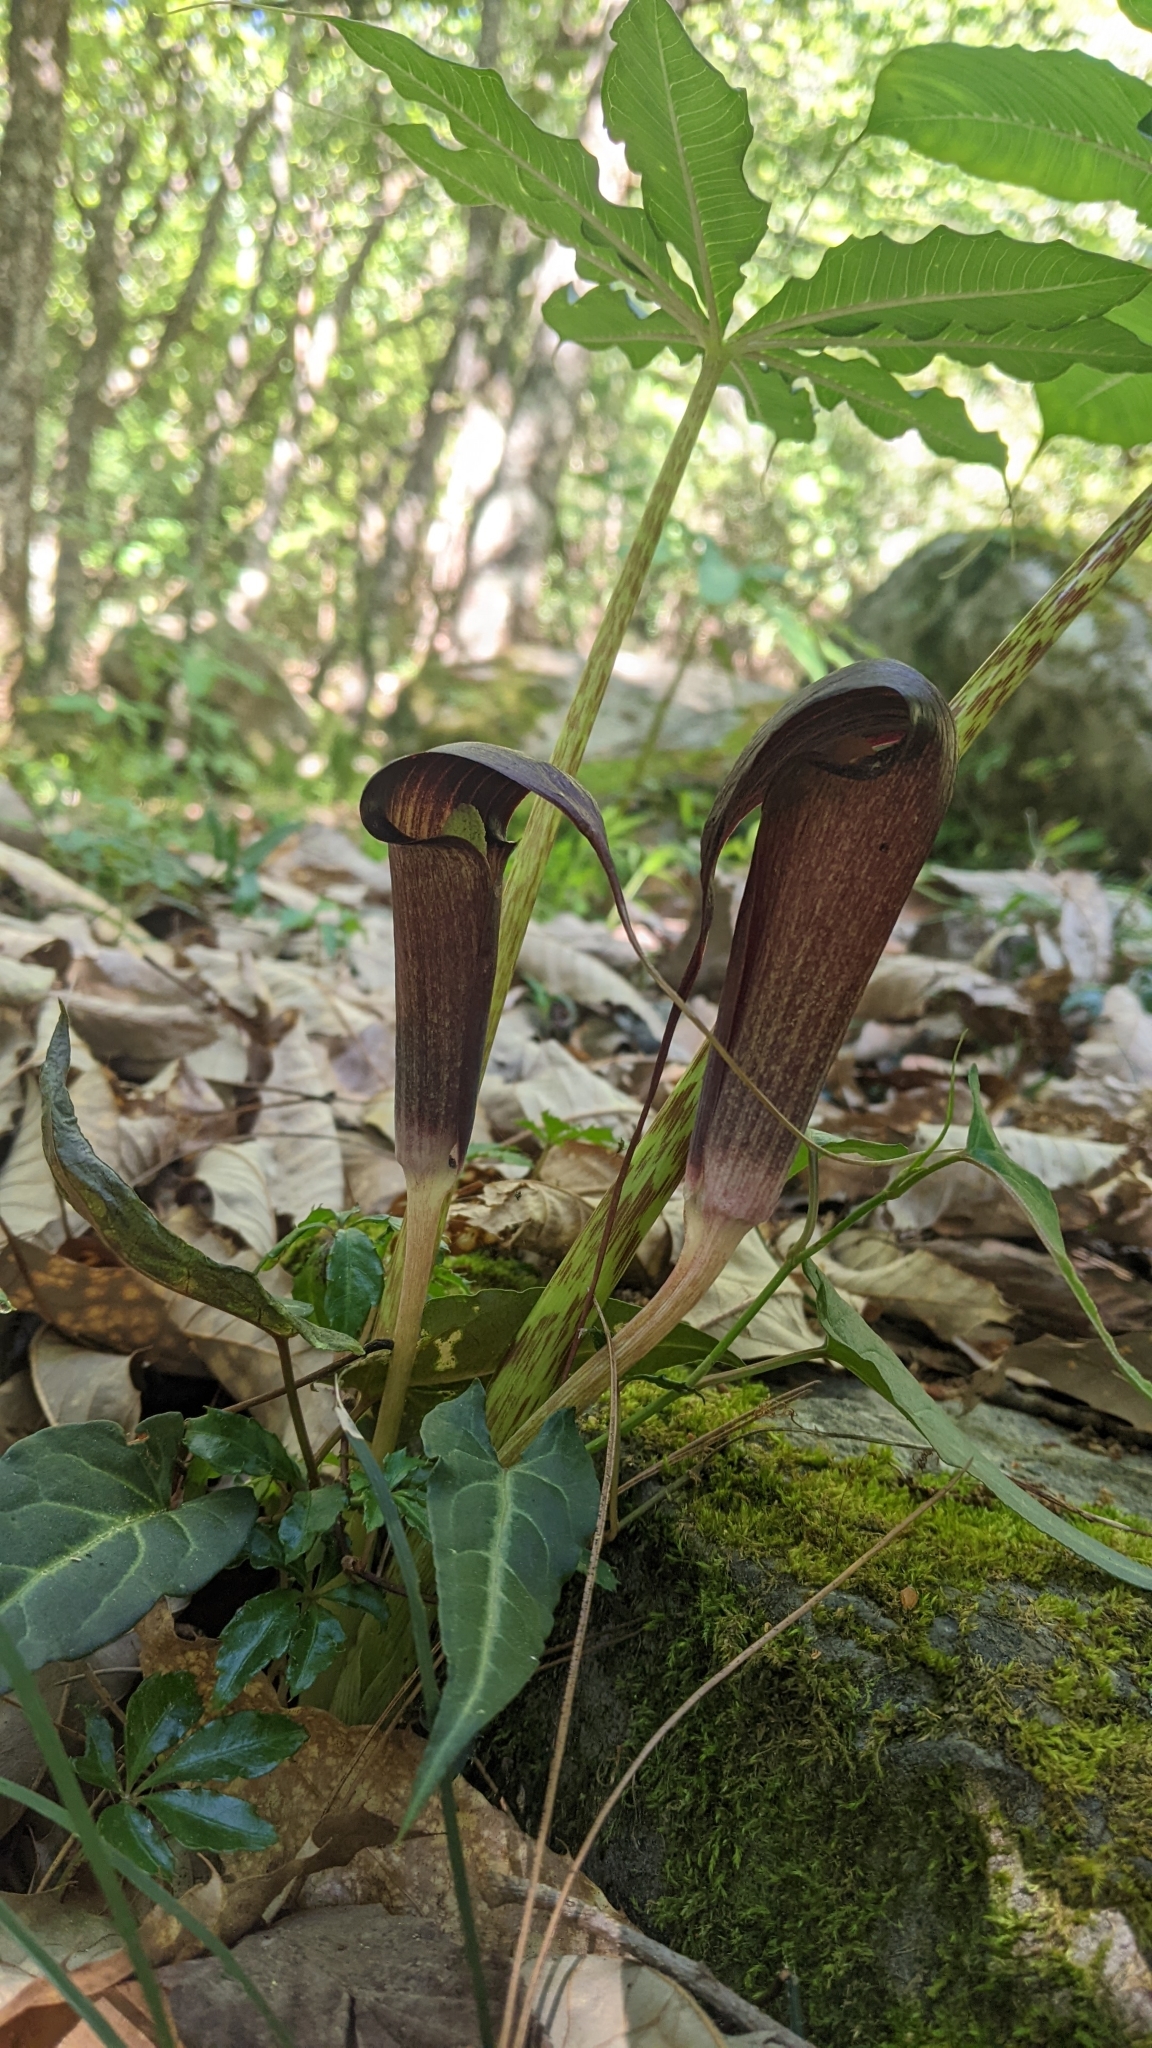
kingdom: Plantae
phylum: Tracheophyta
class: Liliopsida
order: Alismatales
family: Araceae
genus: Arisaema
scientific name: Arisaema taiwanense
